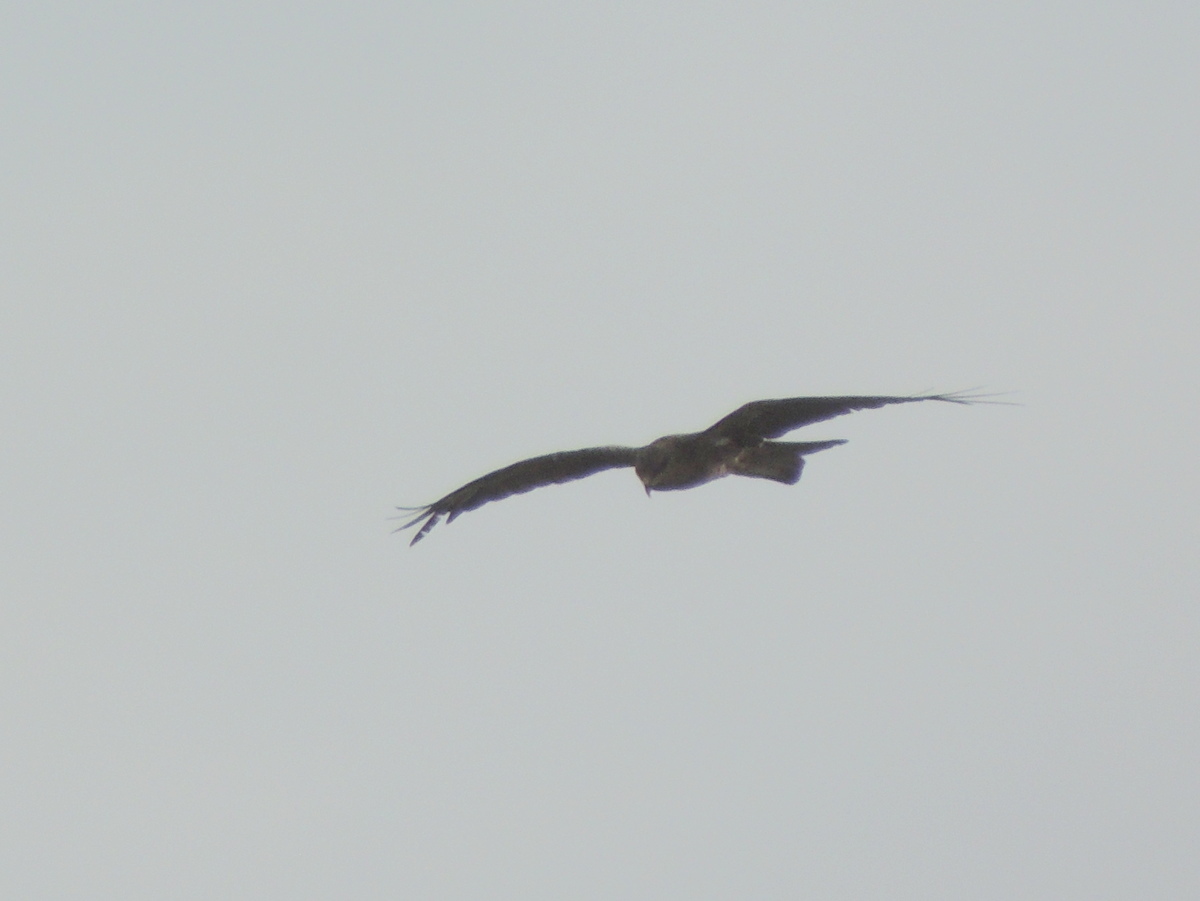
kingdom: Animalia
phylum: Chordata
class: Aves
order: Accipitriformes
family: Accipitridae
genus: Milvus
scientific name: Milvus migrans
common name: Black kite
